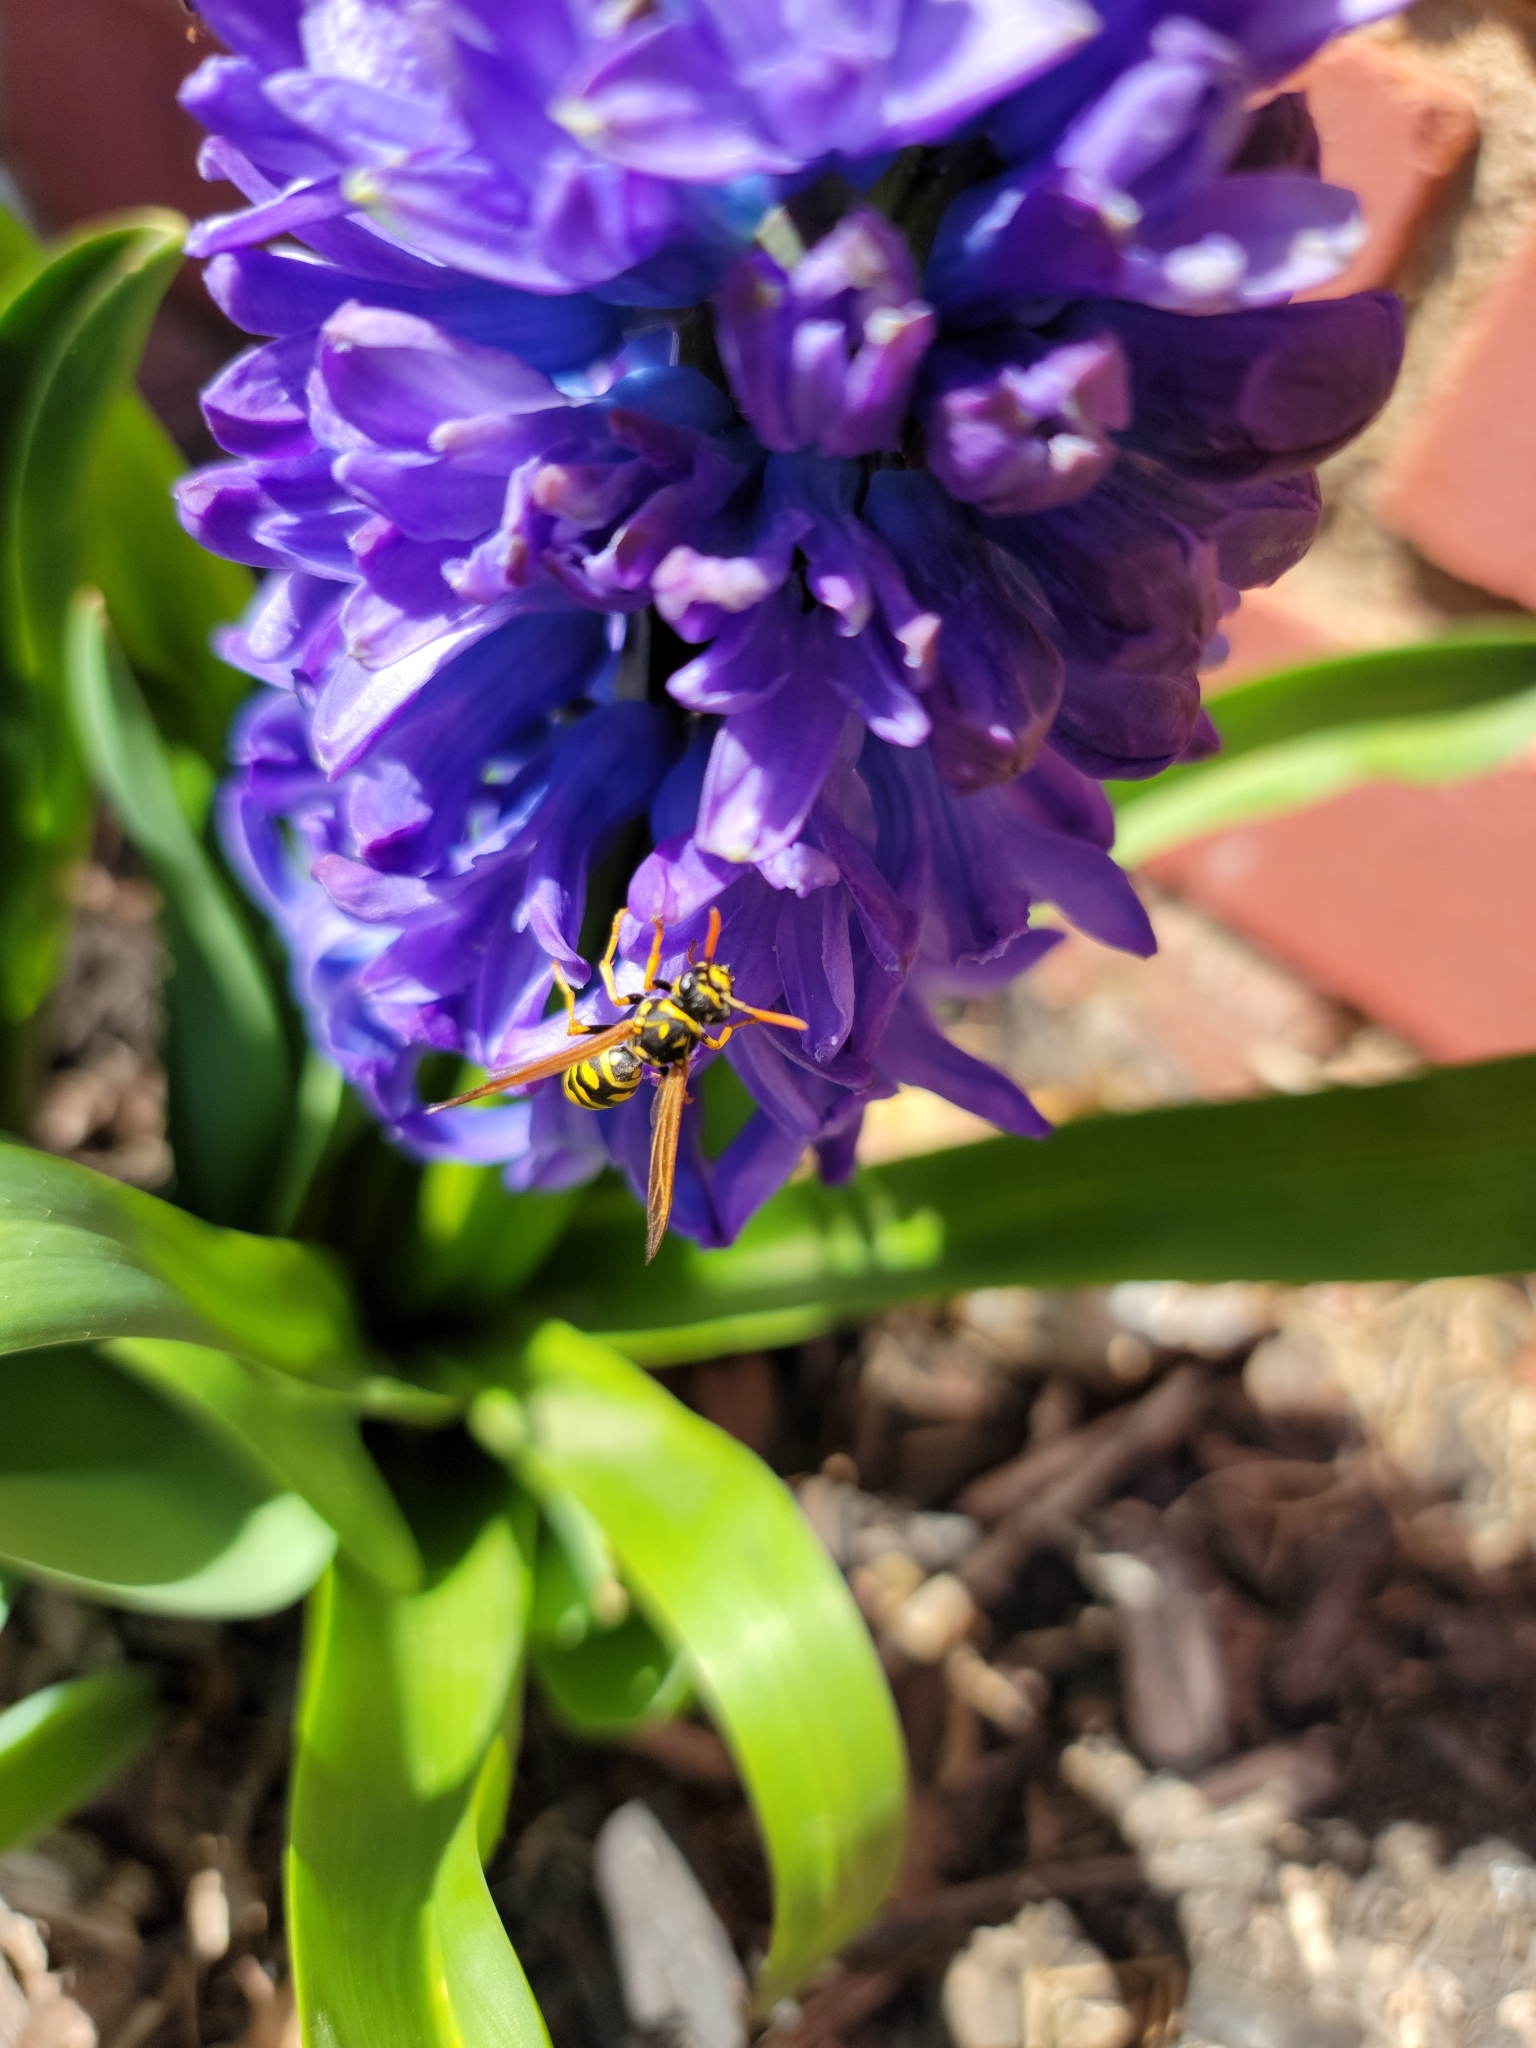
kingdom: Animalia
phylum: Arthropoda
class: Insecta
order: Hymenoptera
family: Eumenidae
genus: Polistes
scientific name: Polistes dominula
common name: Paper wasp
